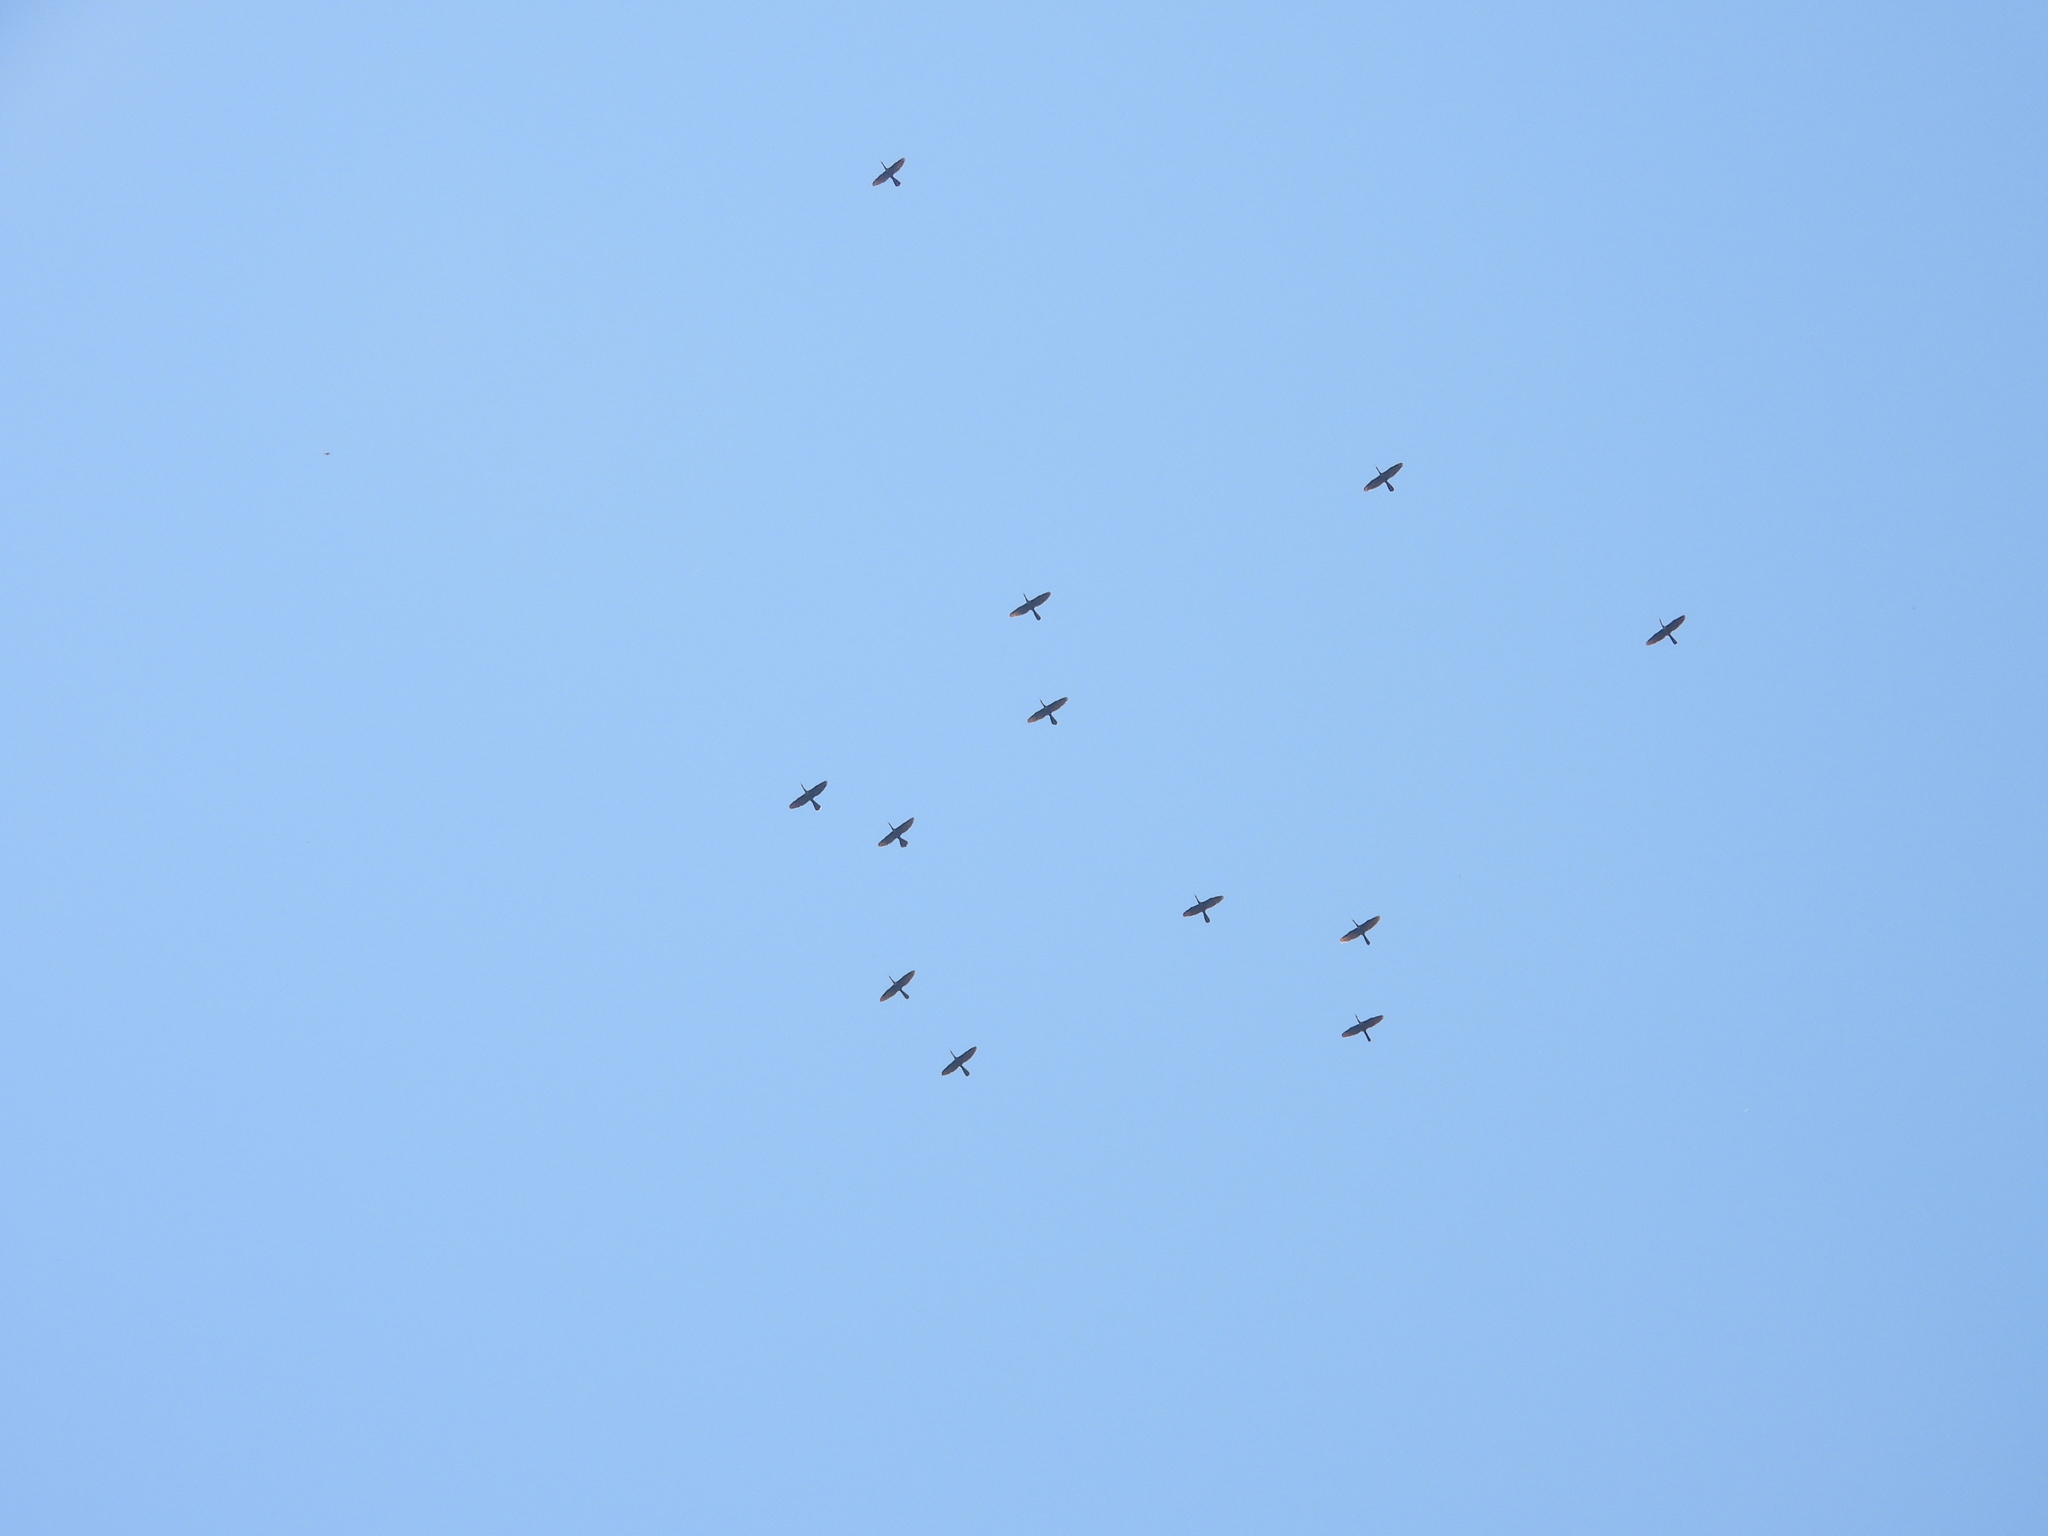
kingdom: Animalia
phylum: Chordata
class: Aves
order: Suliformes
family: Anhingidae
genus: Anhinga
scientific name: Anhinga anhinga
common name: Anhinga
